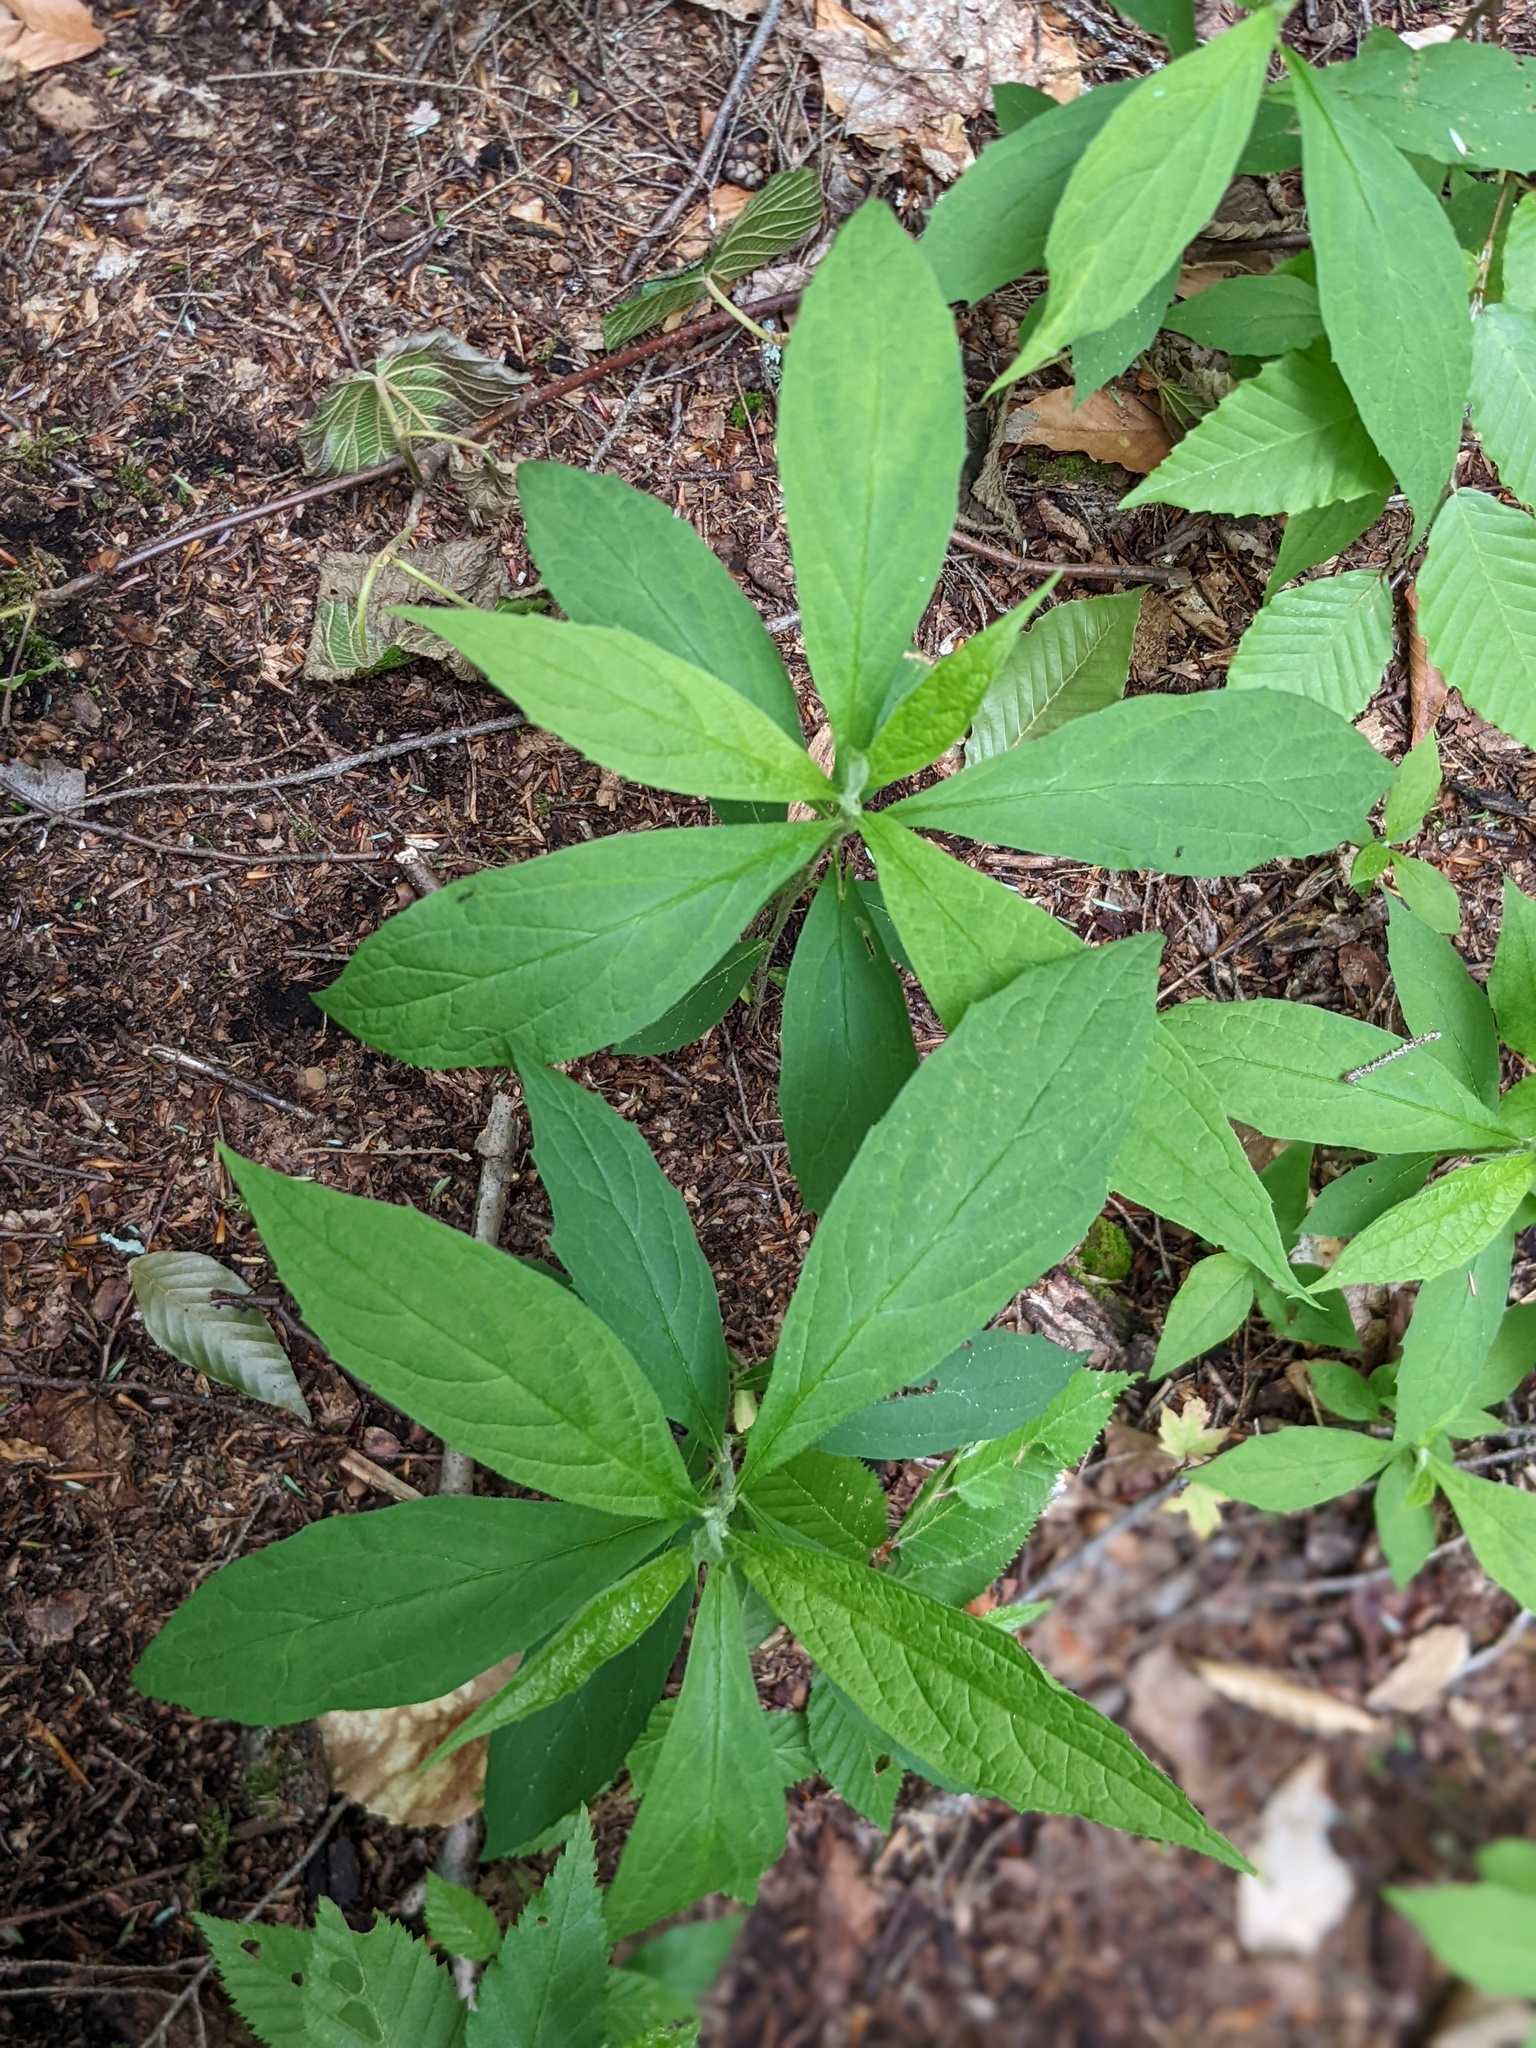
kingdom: Plantae
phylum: Tracheophyta
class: Magnoliopsida
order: Asterales
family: Asteraceae
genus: Oclemena
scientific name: Oclemena acuminata
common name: Mountain aster
